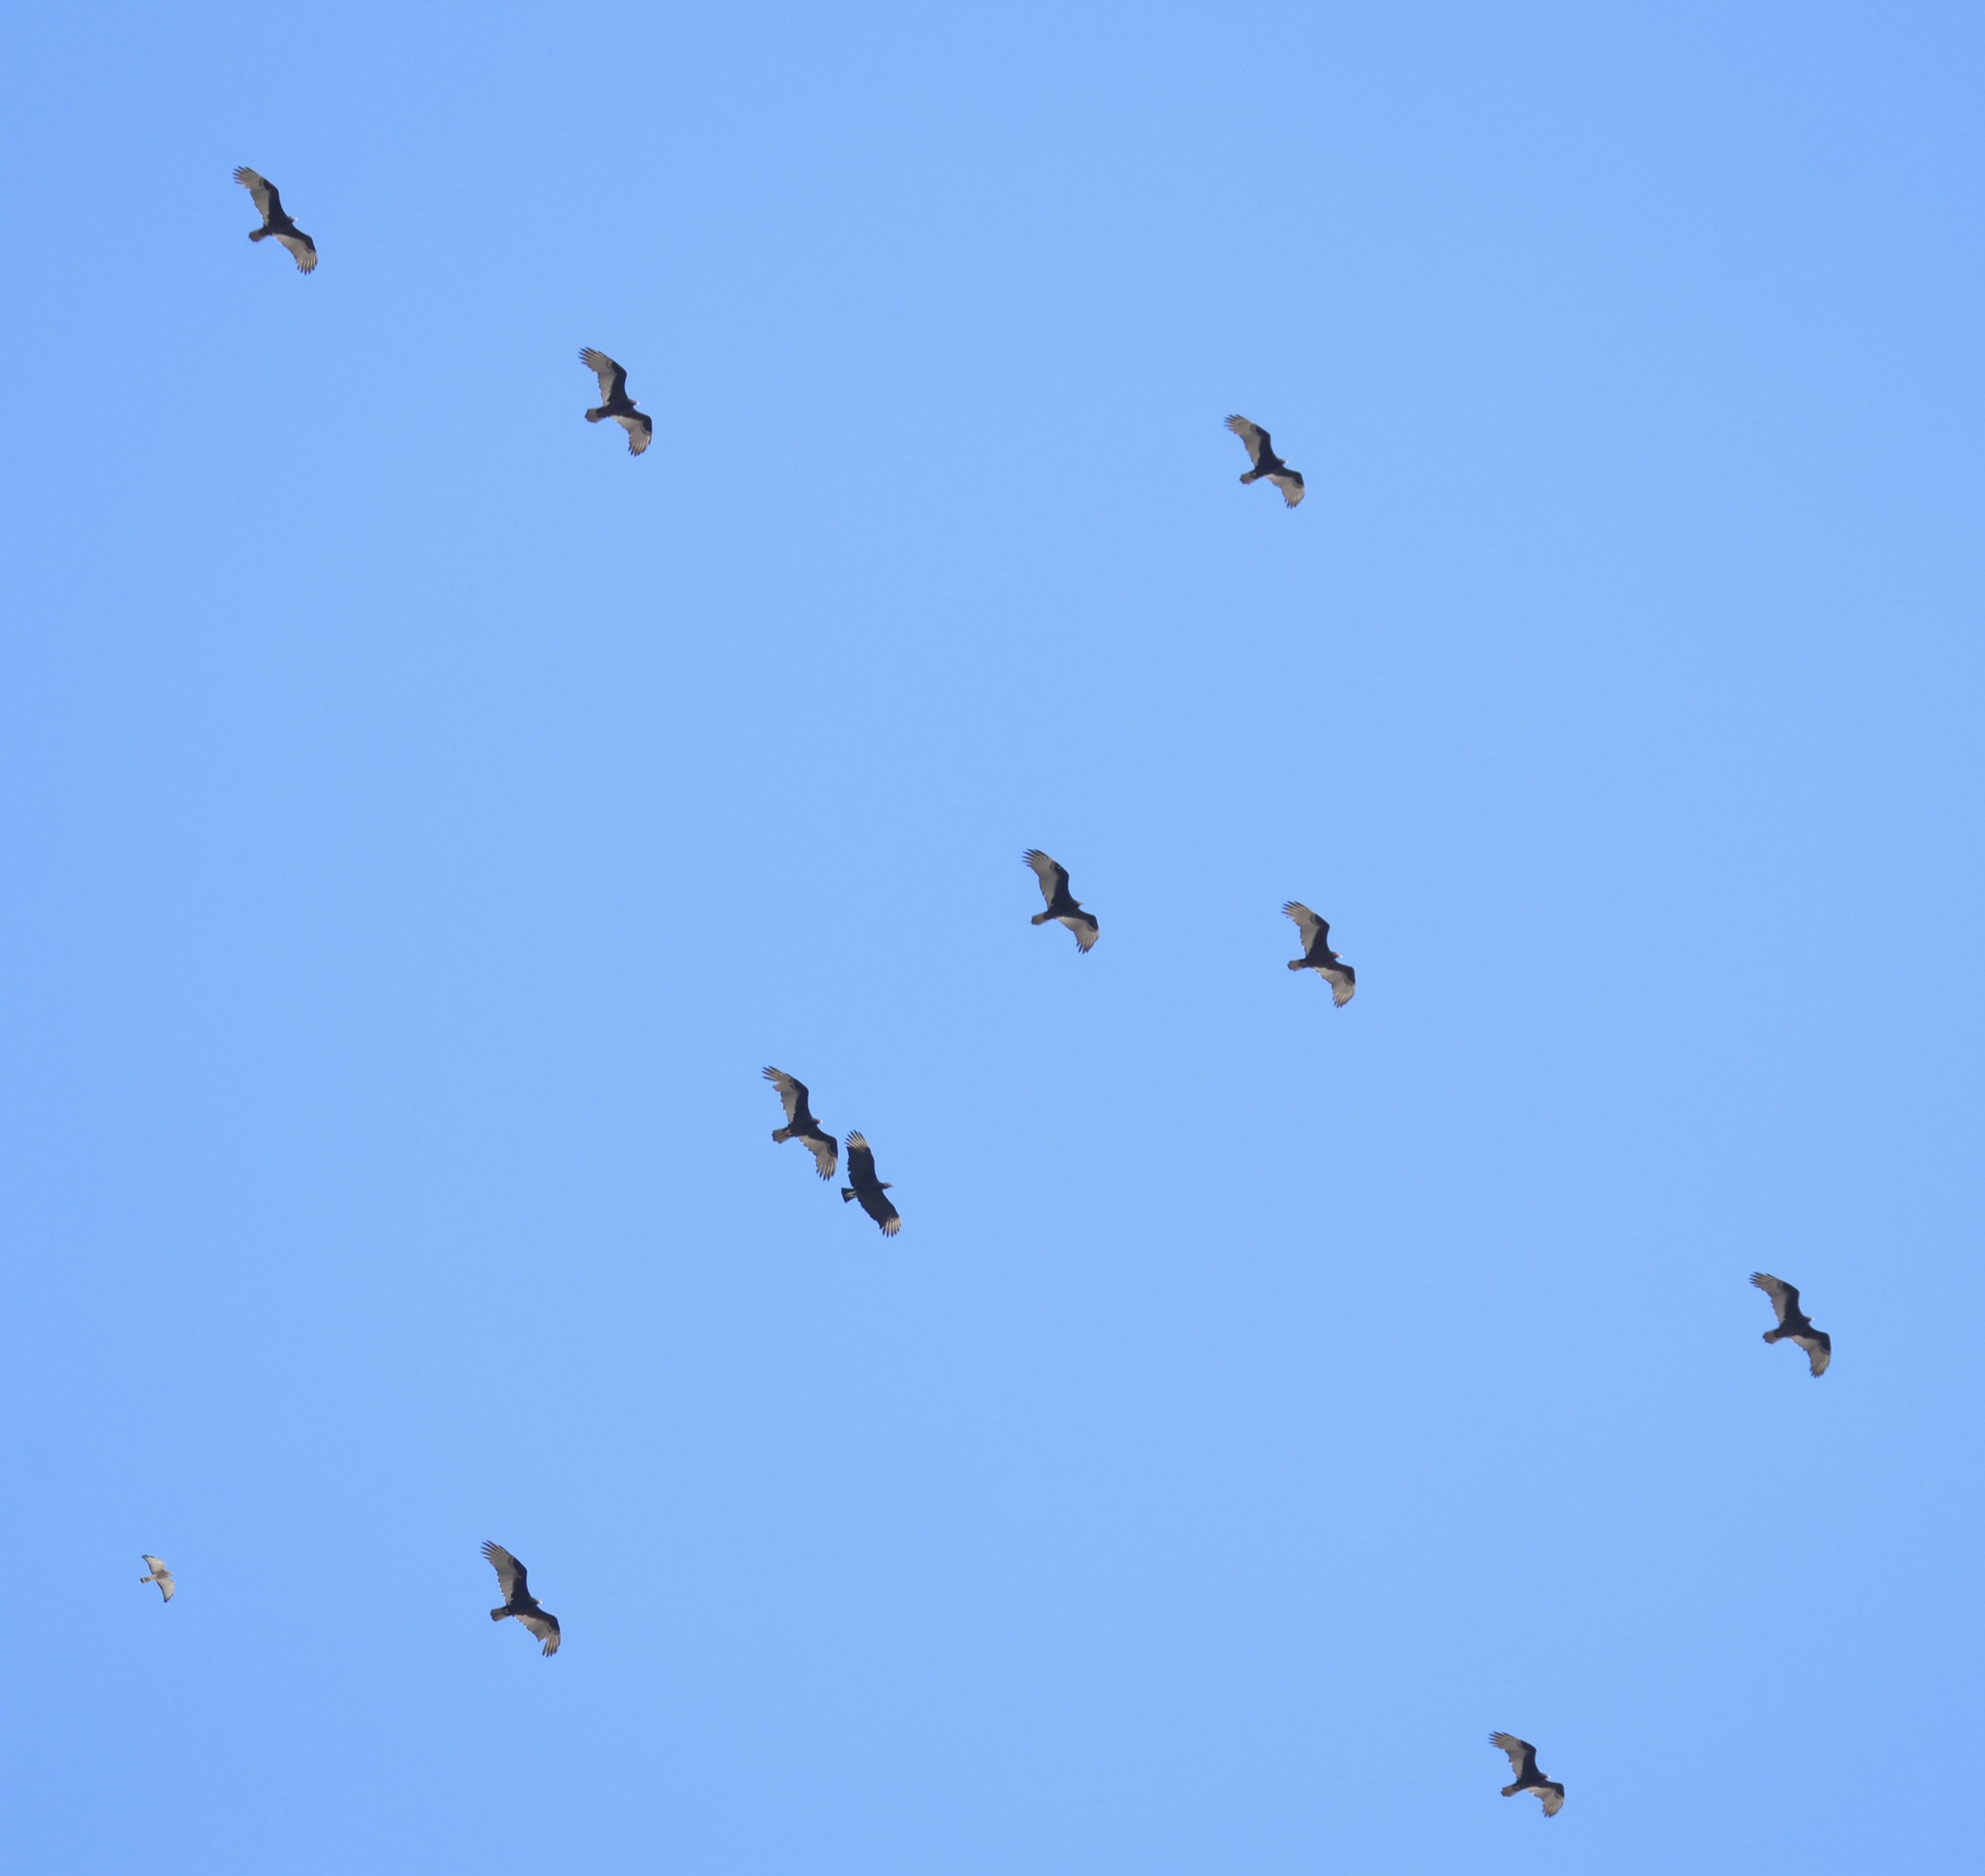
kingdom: Animalia
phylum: Chordata
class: Aves
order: Accipitriformes
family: Cathartidae
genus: Cathartes
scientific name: Cathartes aura
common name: Turkey vulture
